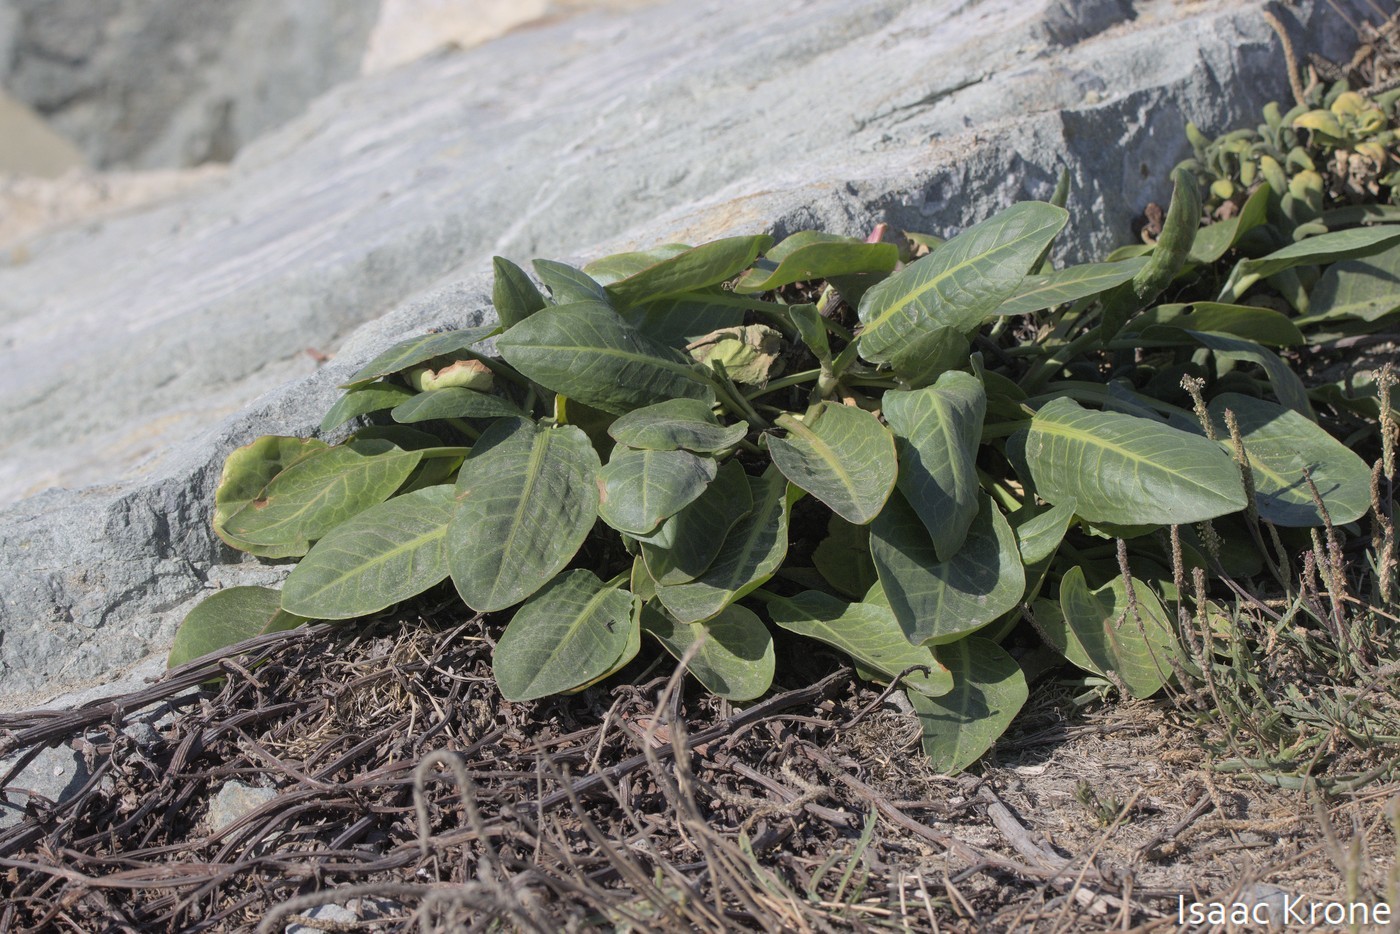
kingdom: Plantae
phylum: Tracheophyta
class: Magnoliopsida
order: Piperales
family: Saururaceae
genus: Anemopsis
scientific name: Anemopsis californica
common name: Apache-beads
